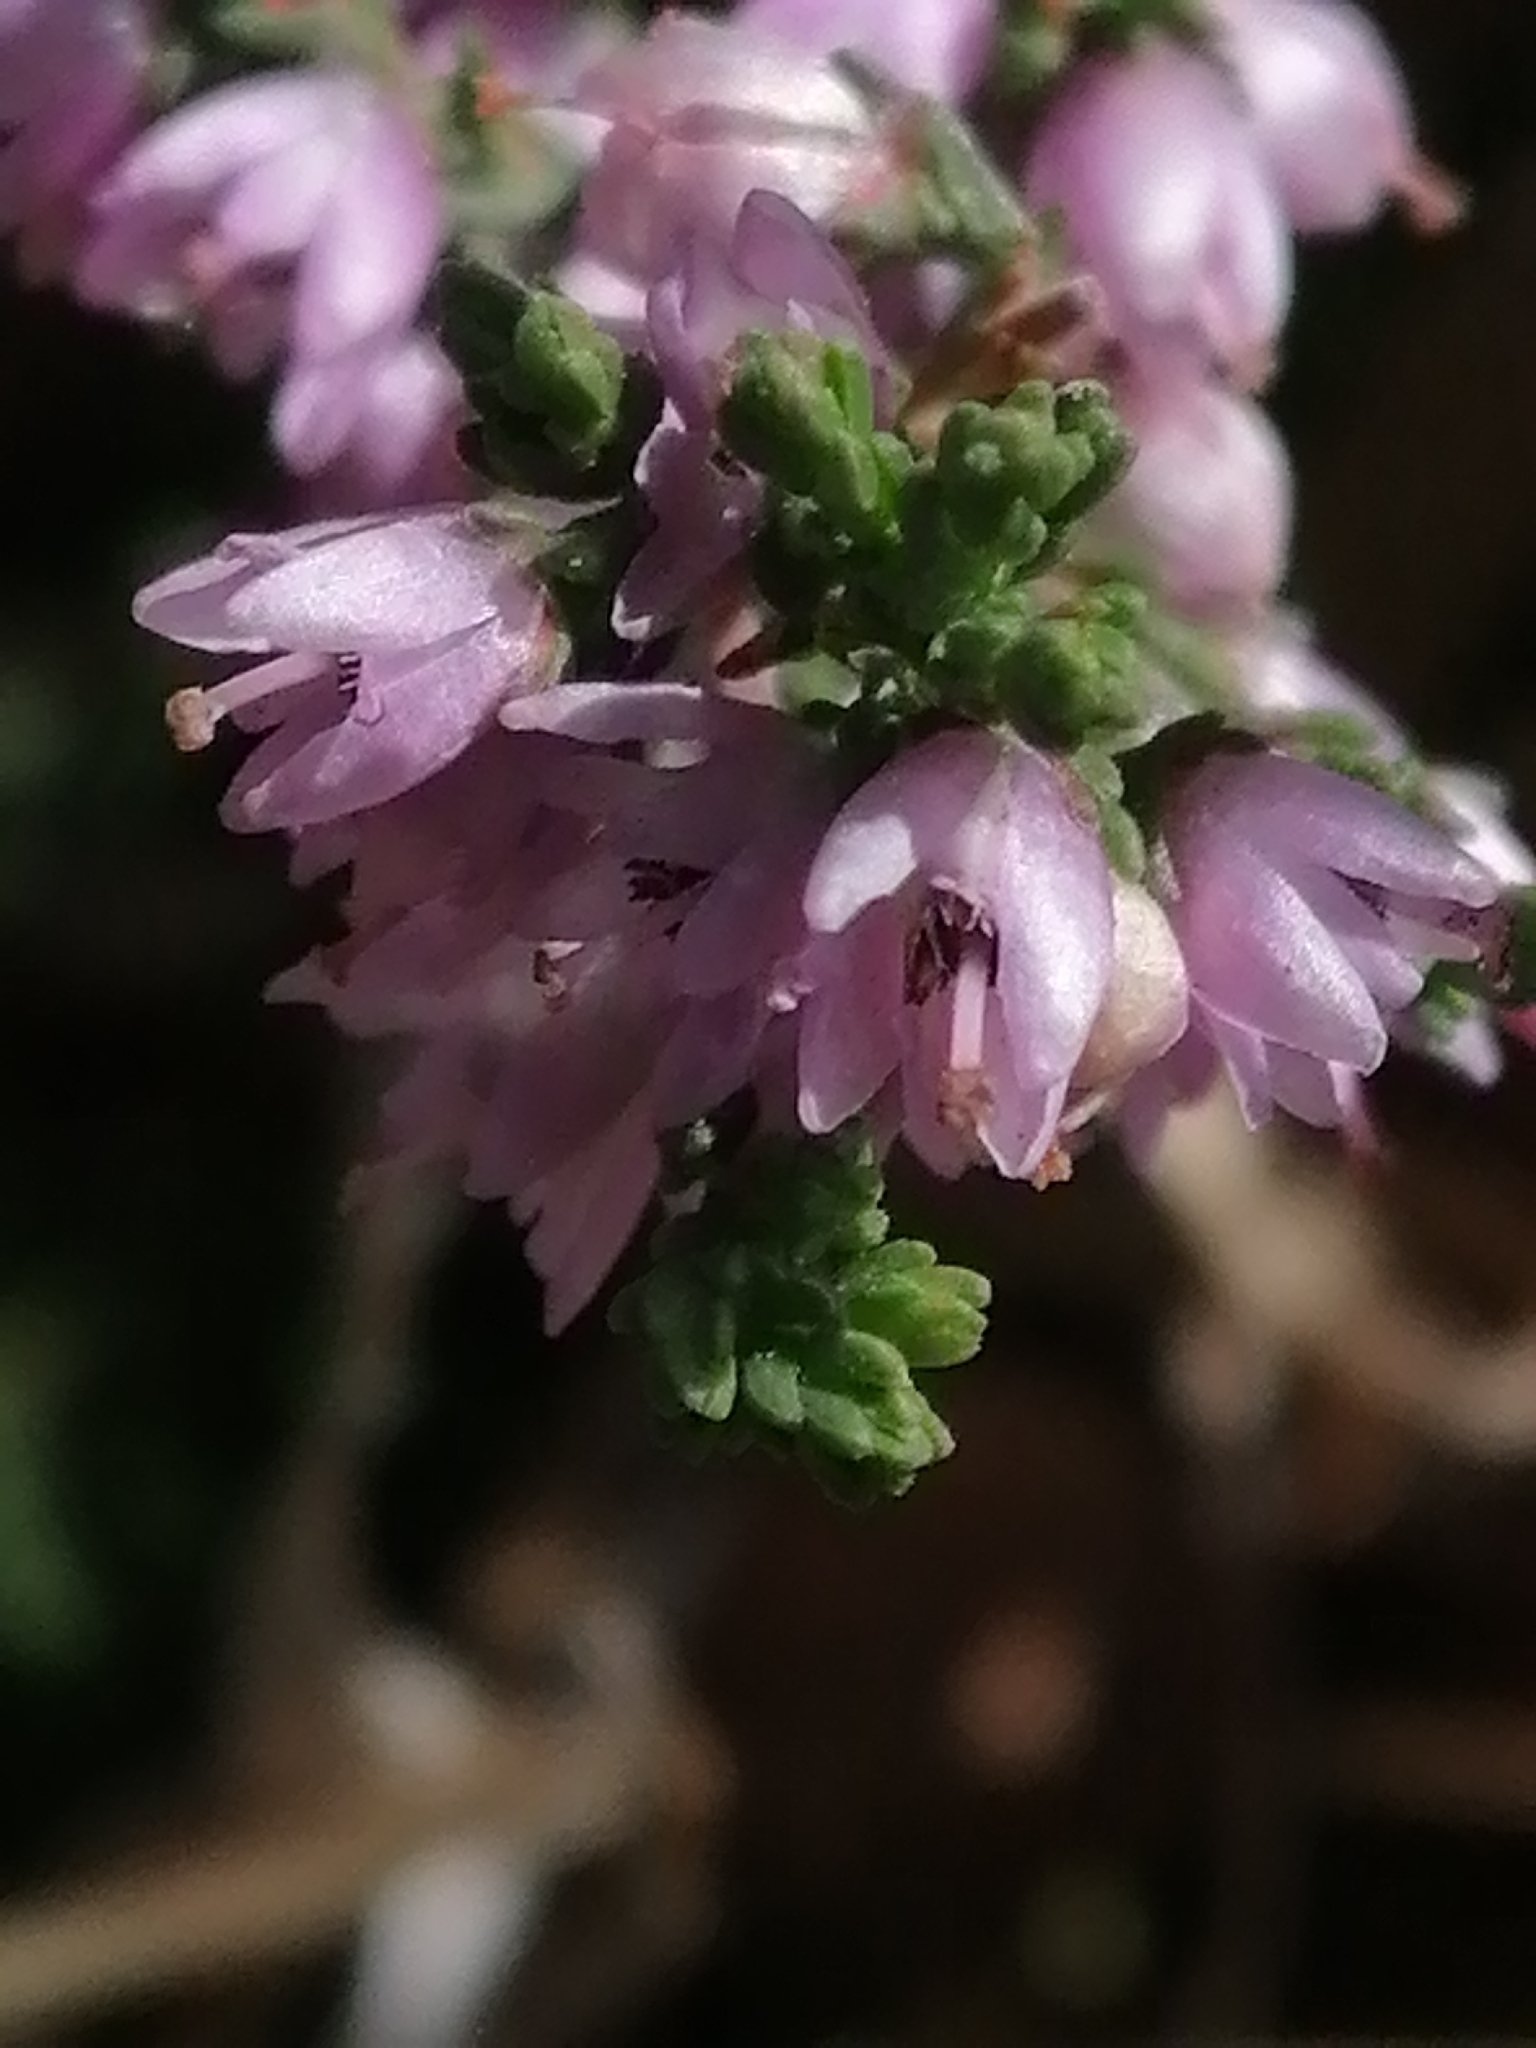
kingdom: Plantae
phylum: Tracheophyta
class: Magnoliopsida
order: Ericales
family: Ericaceae
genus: Calluna
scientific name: Calluna vulgaris
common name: Heather
